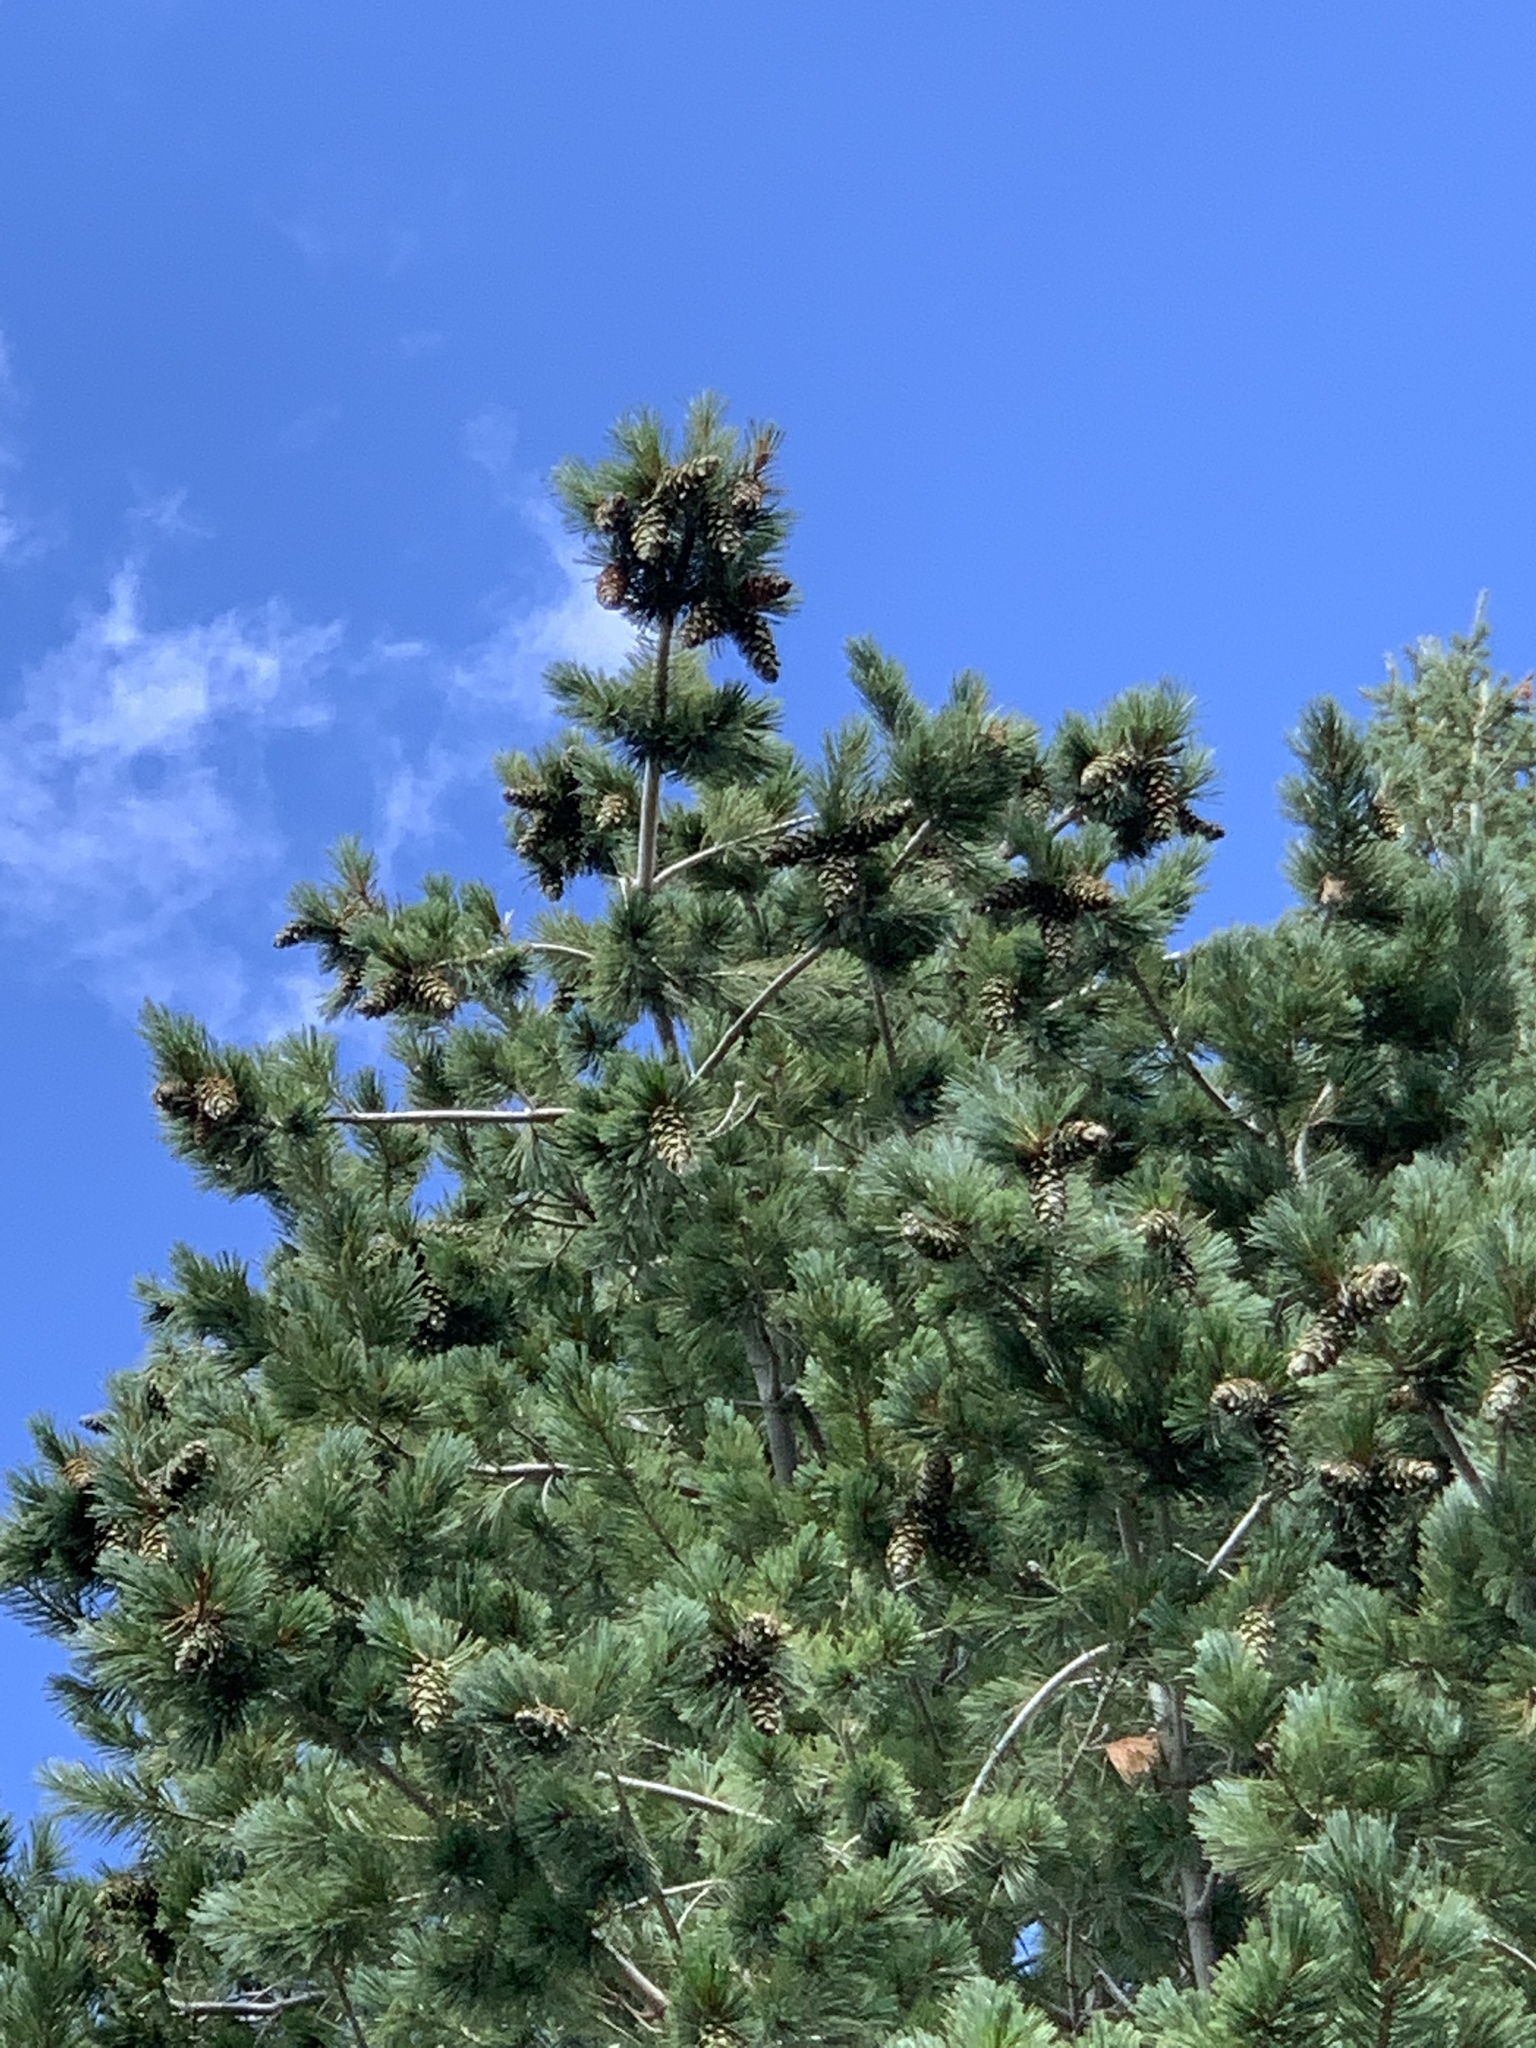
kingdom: Plantae
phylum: Tracheophyta
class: Pinopsida
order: Pinales
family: Pinaceae
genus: Pinus
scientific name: Pinus strobiformis
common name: Southwestern white pine
